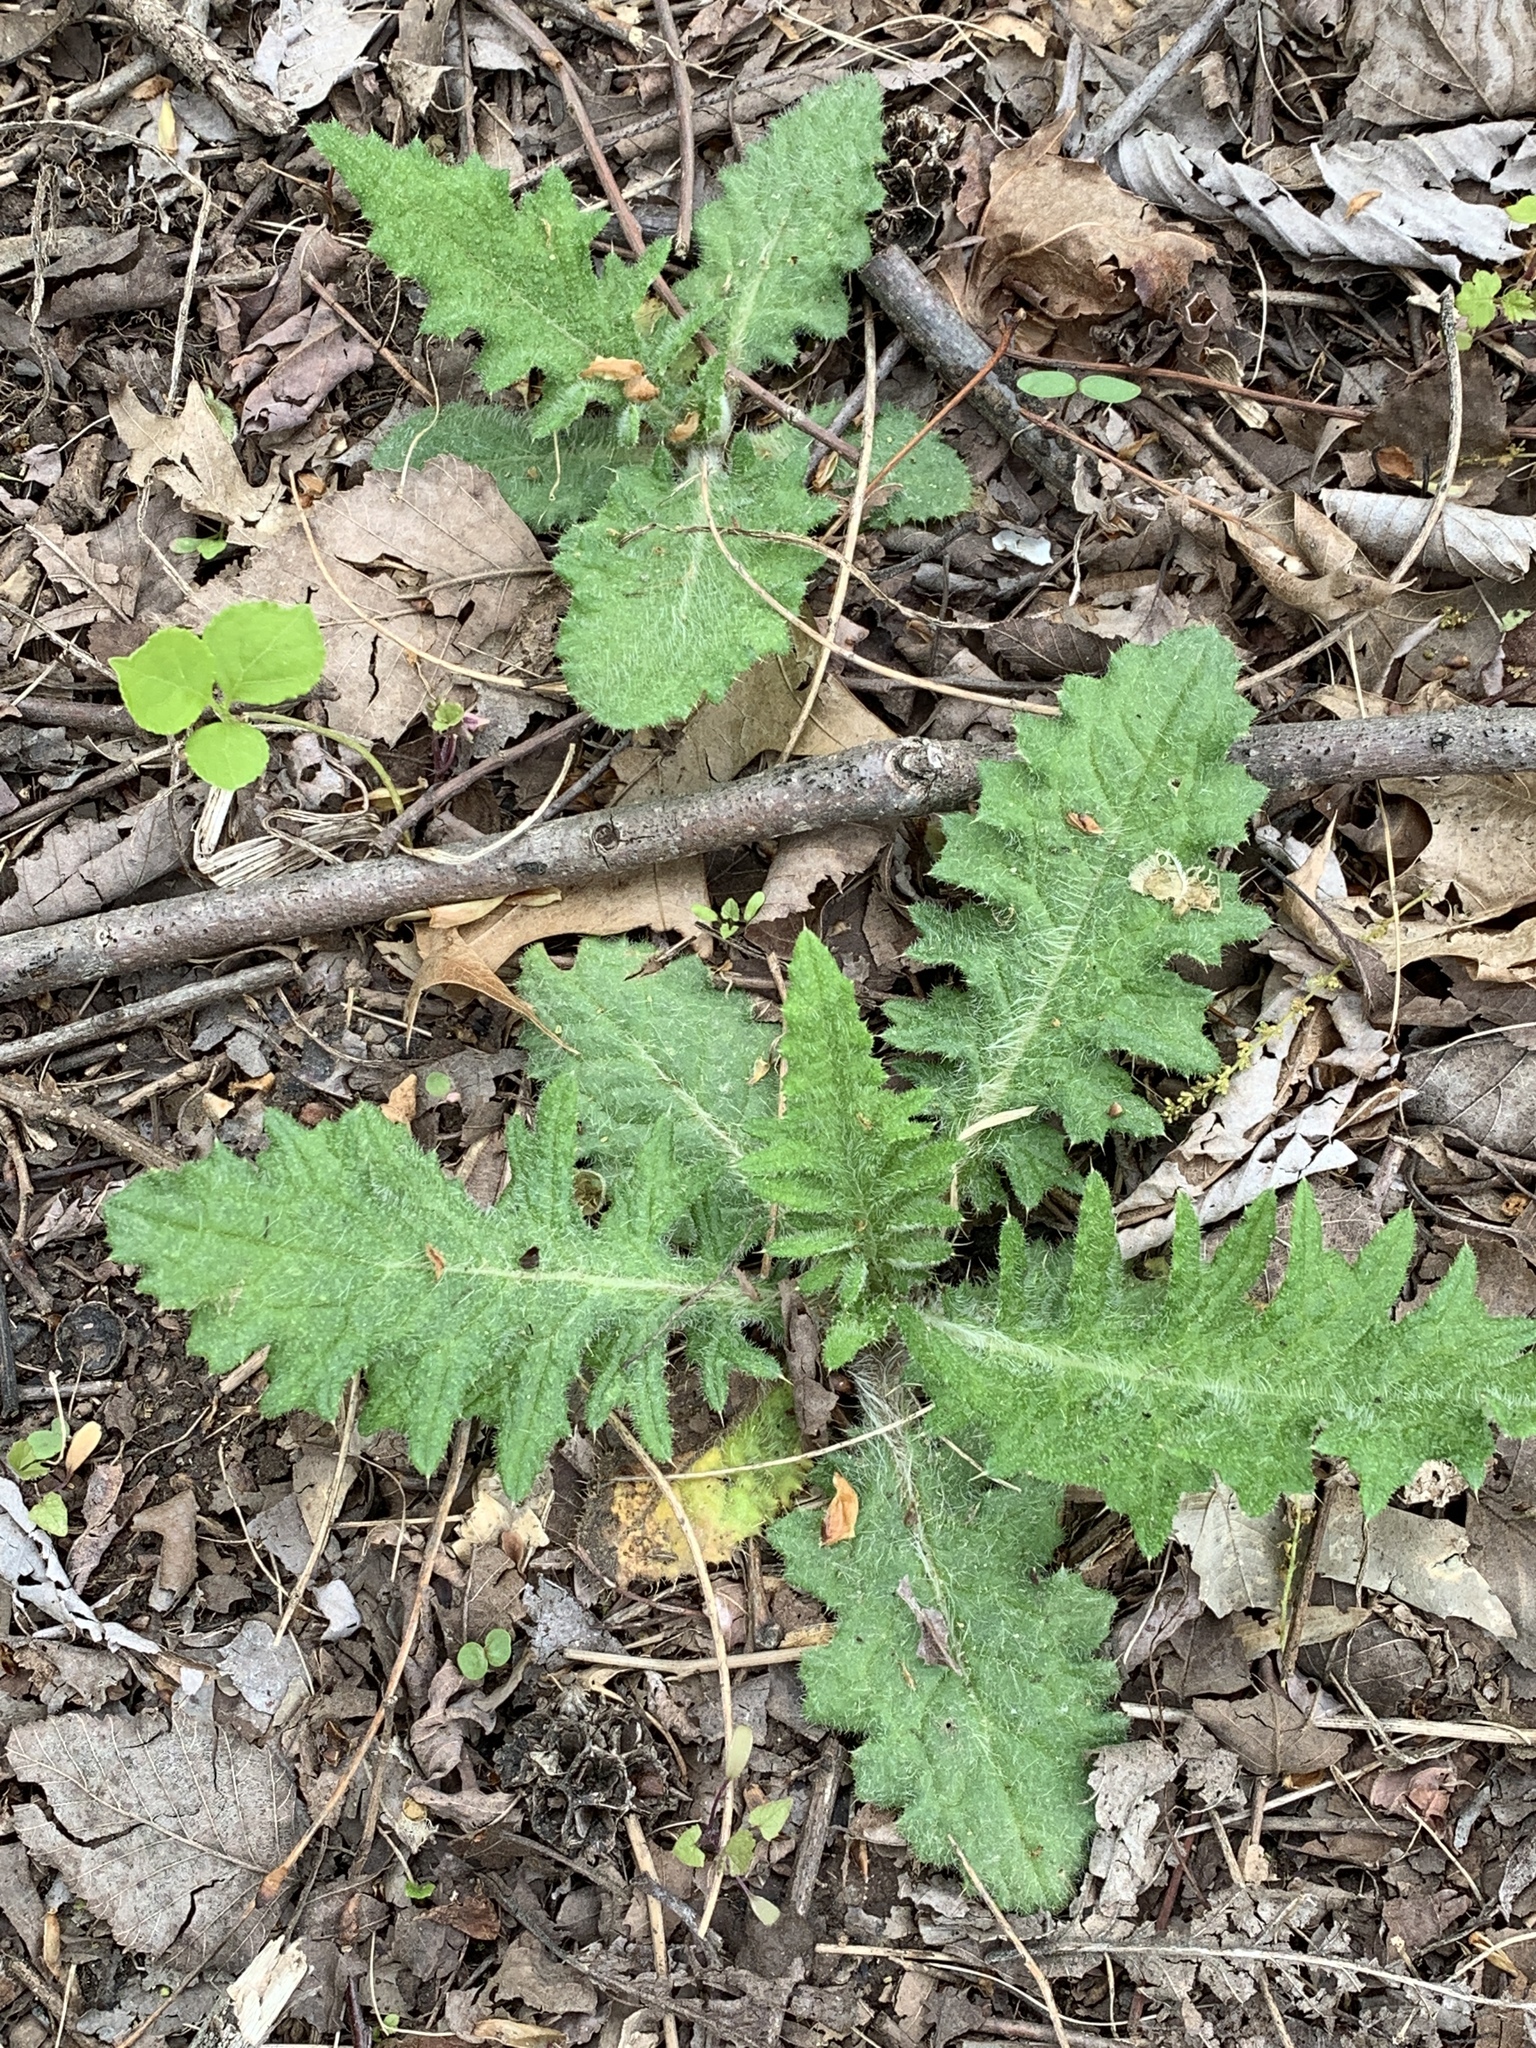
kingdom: Plantae
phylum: Tracheophyta
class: Magnoliopsida
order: Asterales
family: Asteraceae
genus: Cirsium
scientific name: Cirsium vulgare
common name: Bull thistle
